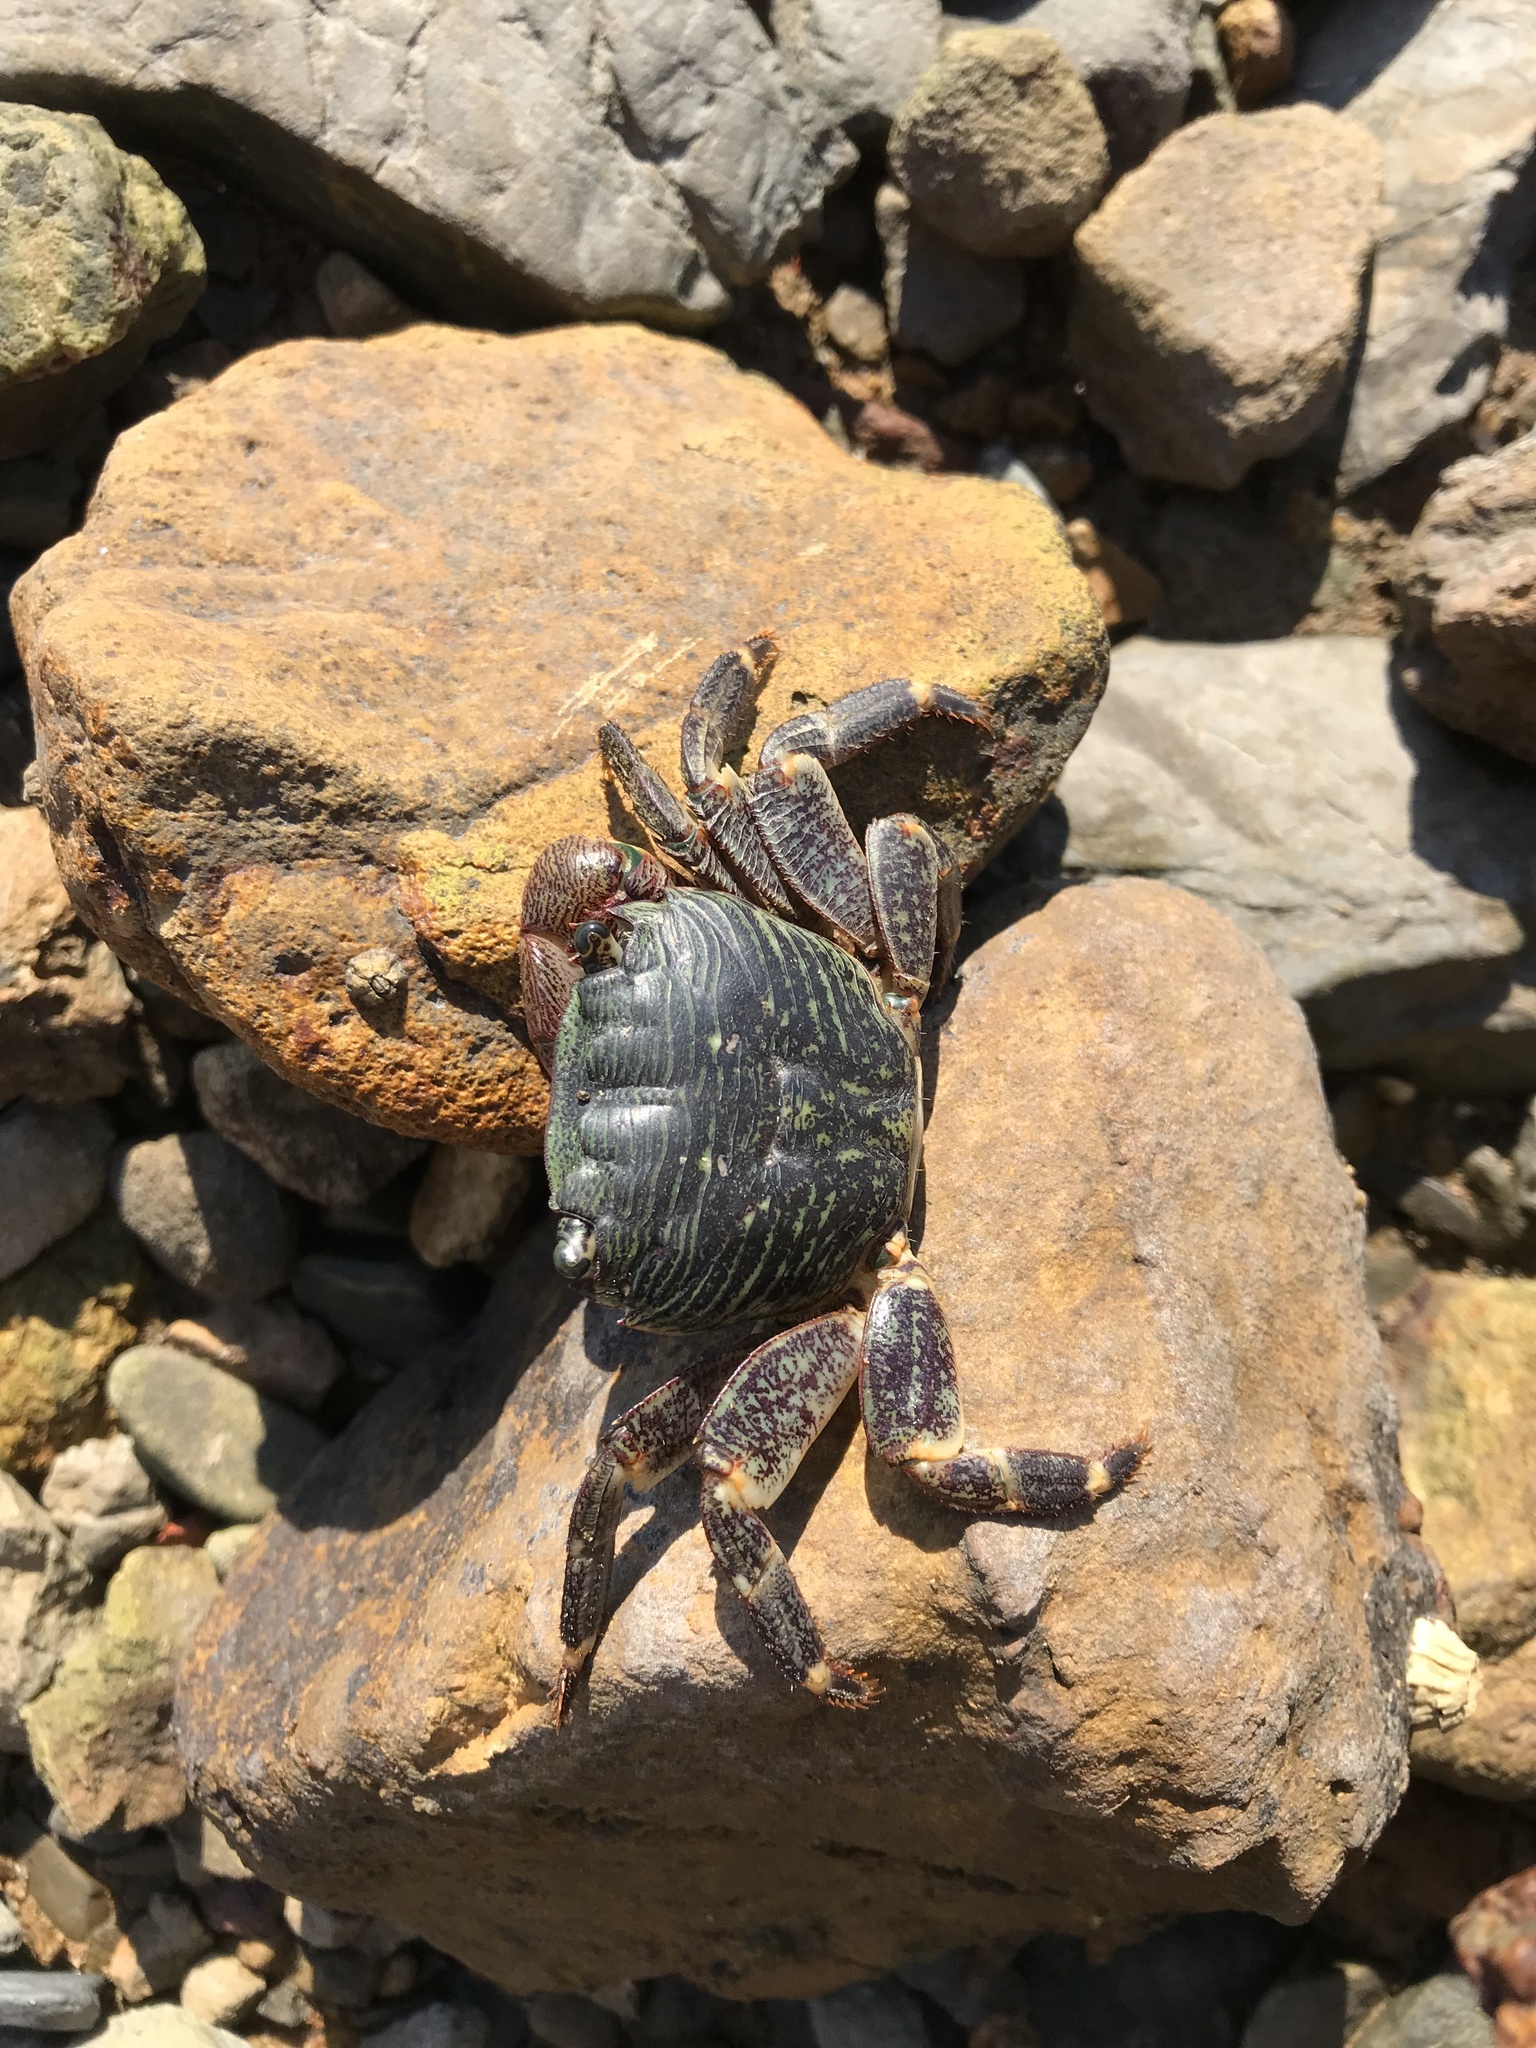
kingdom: Animalia
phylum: Arthropoda
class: Malacostraca
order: Decapoda
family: Grapsidae
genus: Pachygrapsus
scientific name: Pachygrapsus crassipes
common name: Striped shore crab
